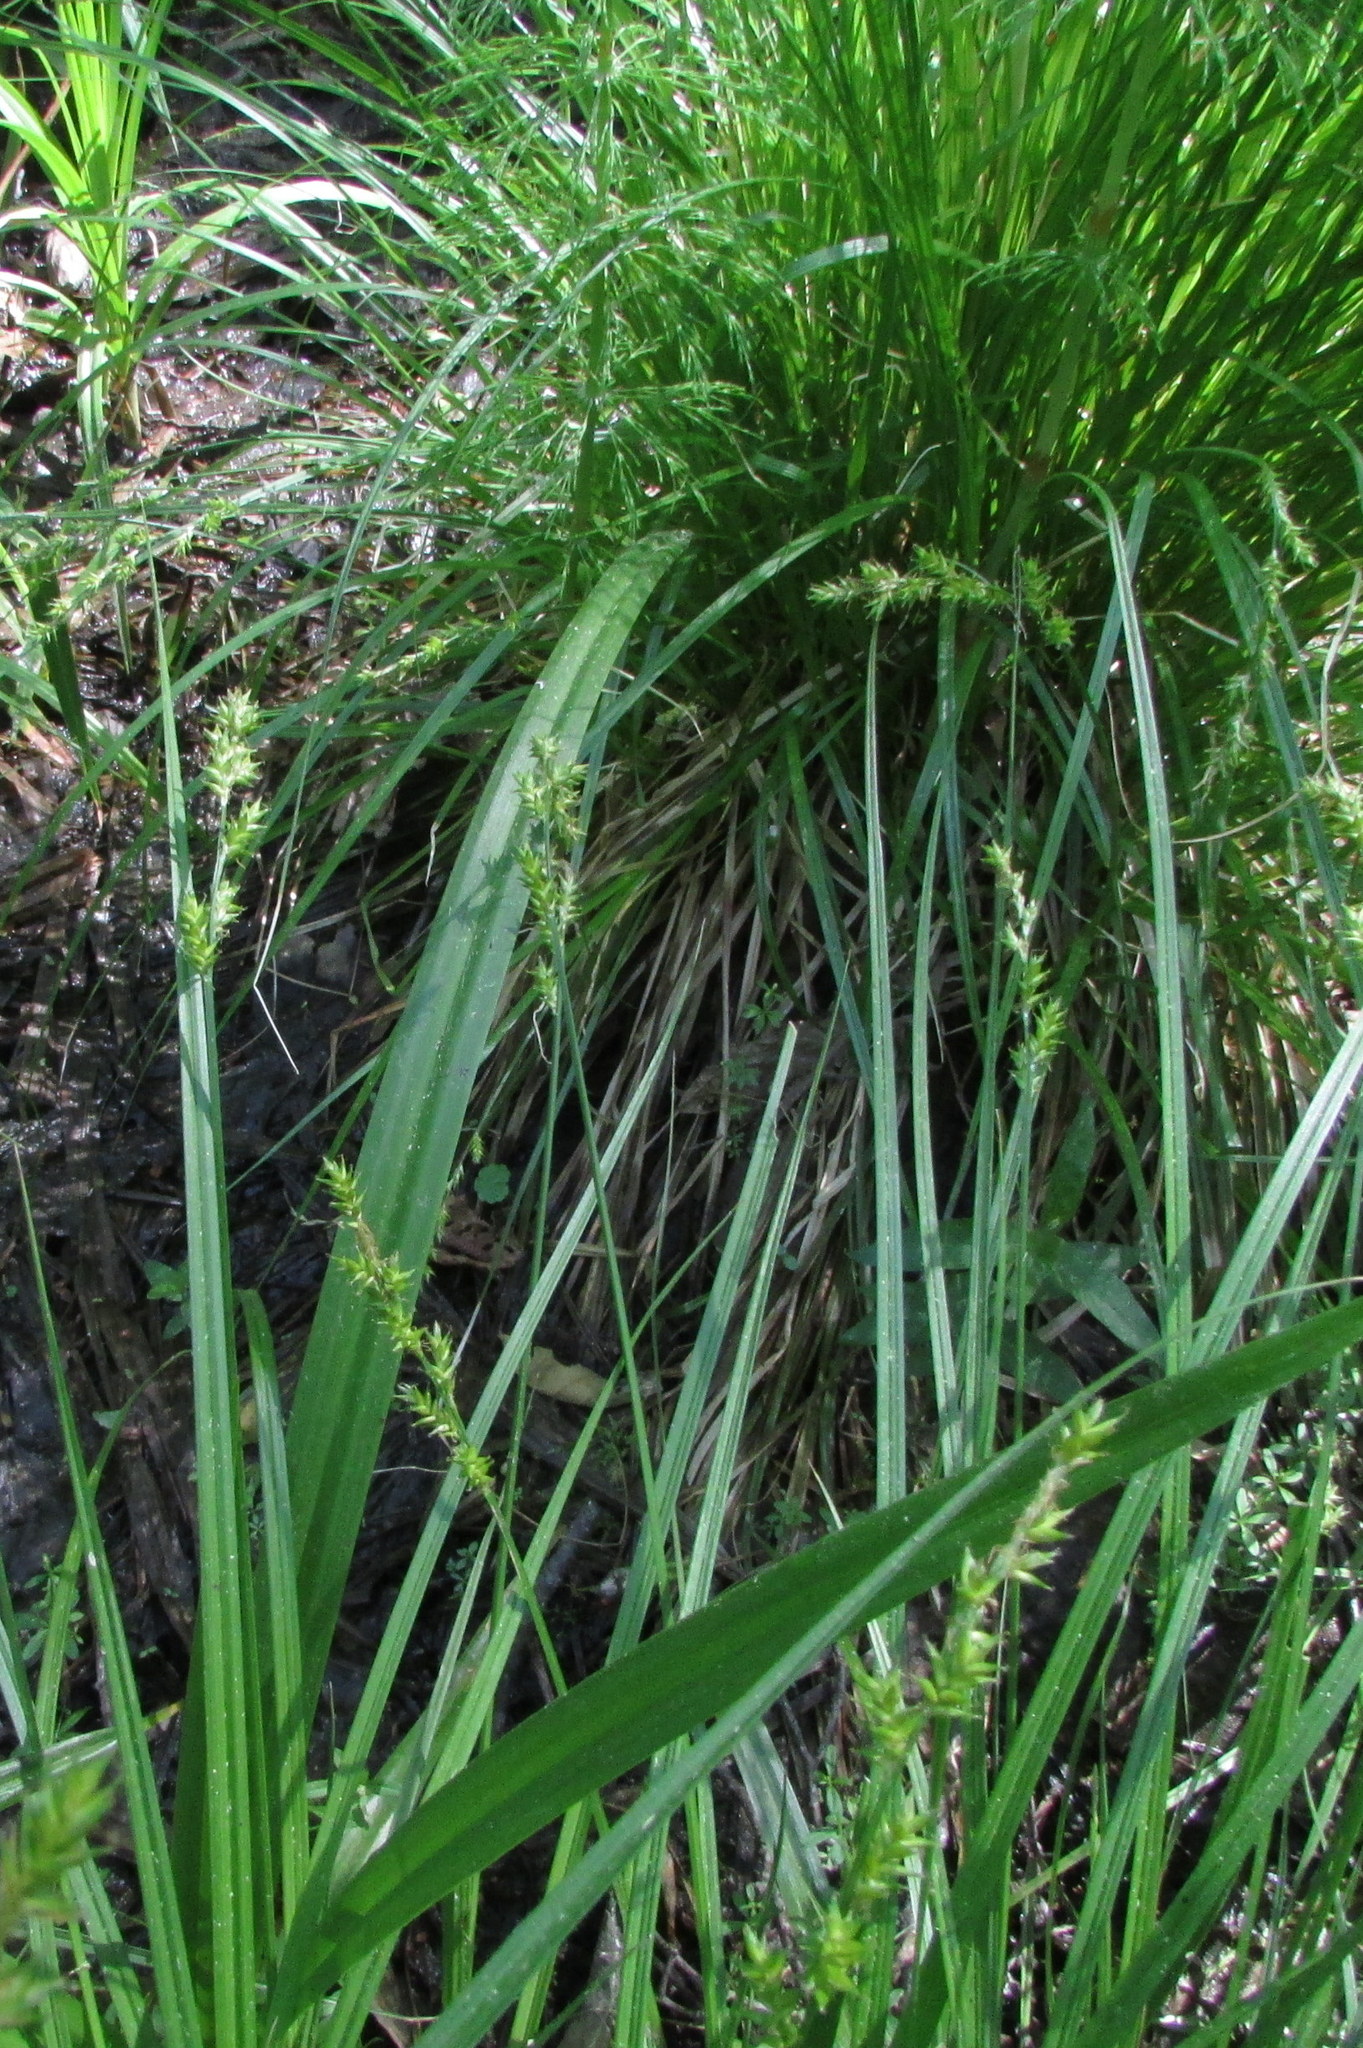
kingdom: Plantae
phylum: Tracheophyta
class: Liliopsida
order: Poales
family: Cyperaceae
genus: Carex
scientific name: Carex elongata
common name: Elongated sedge
